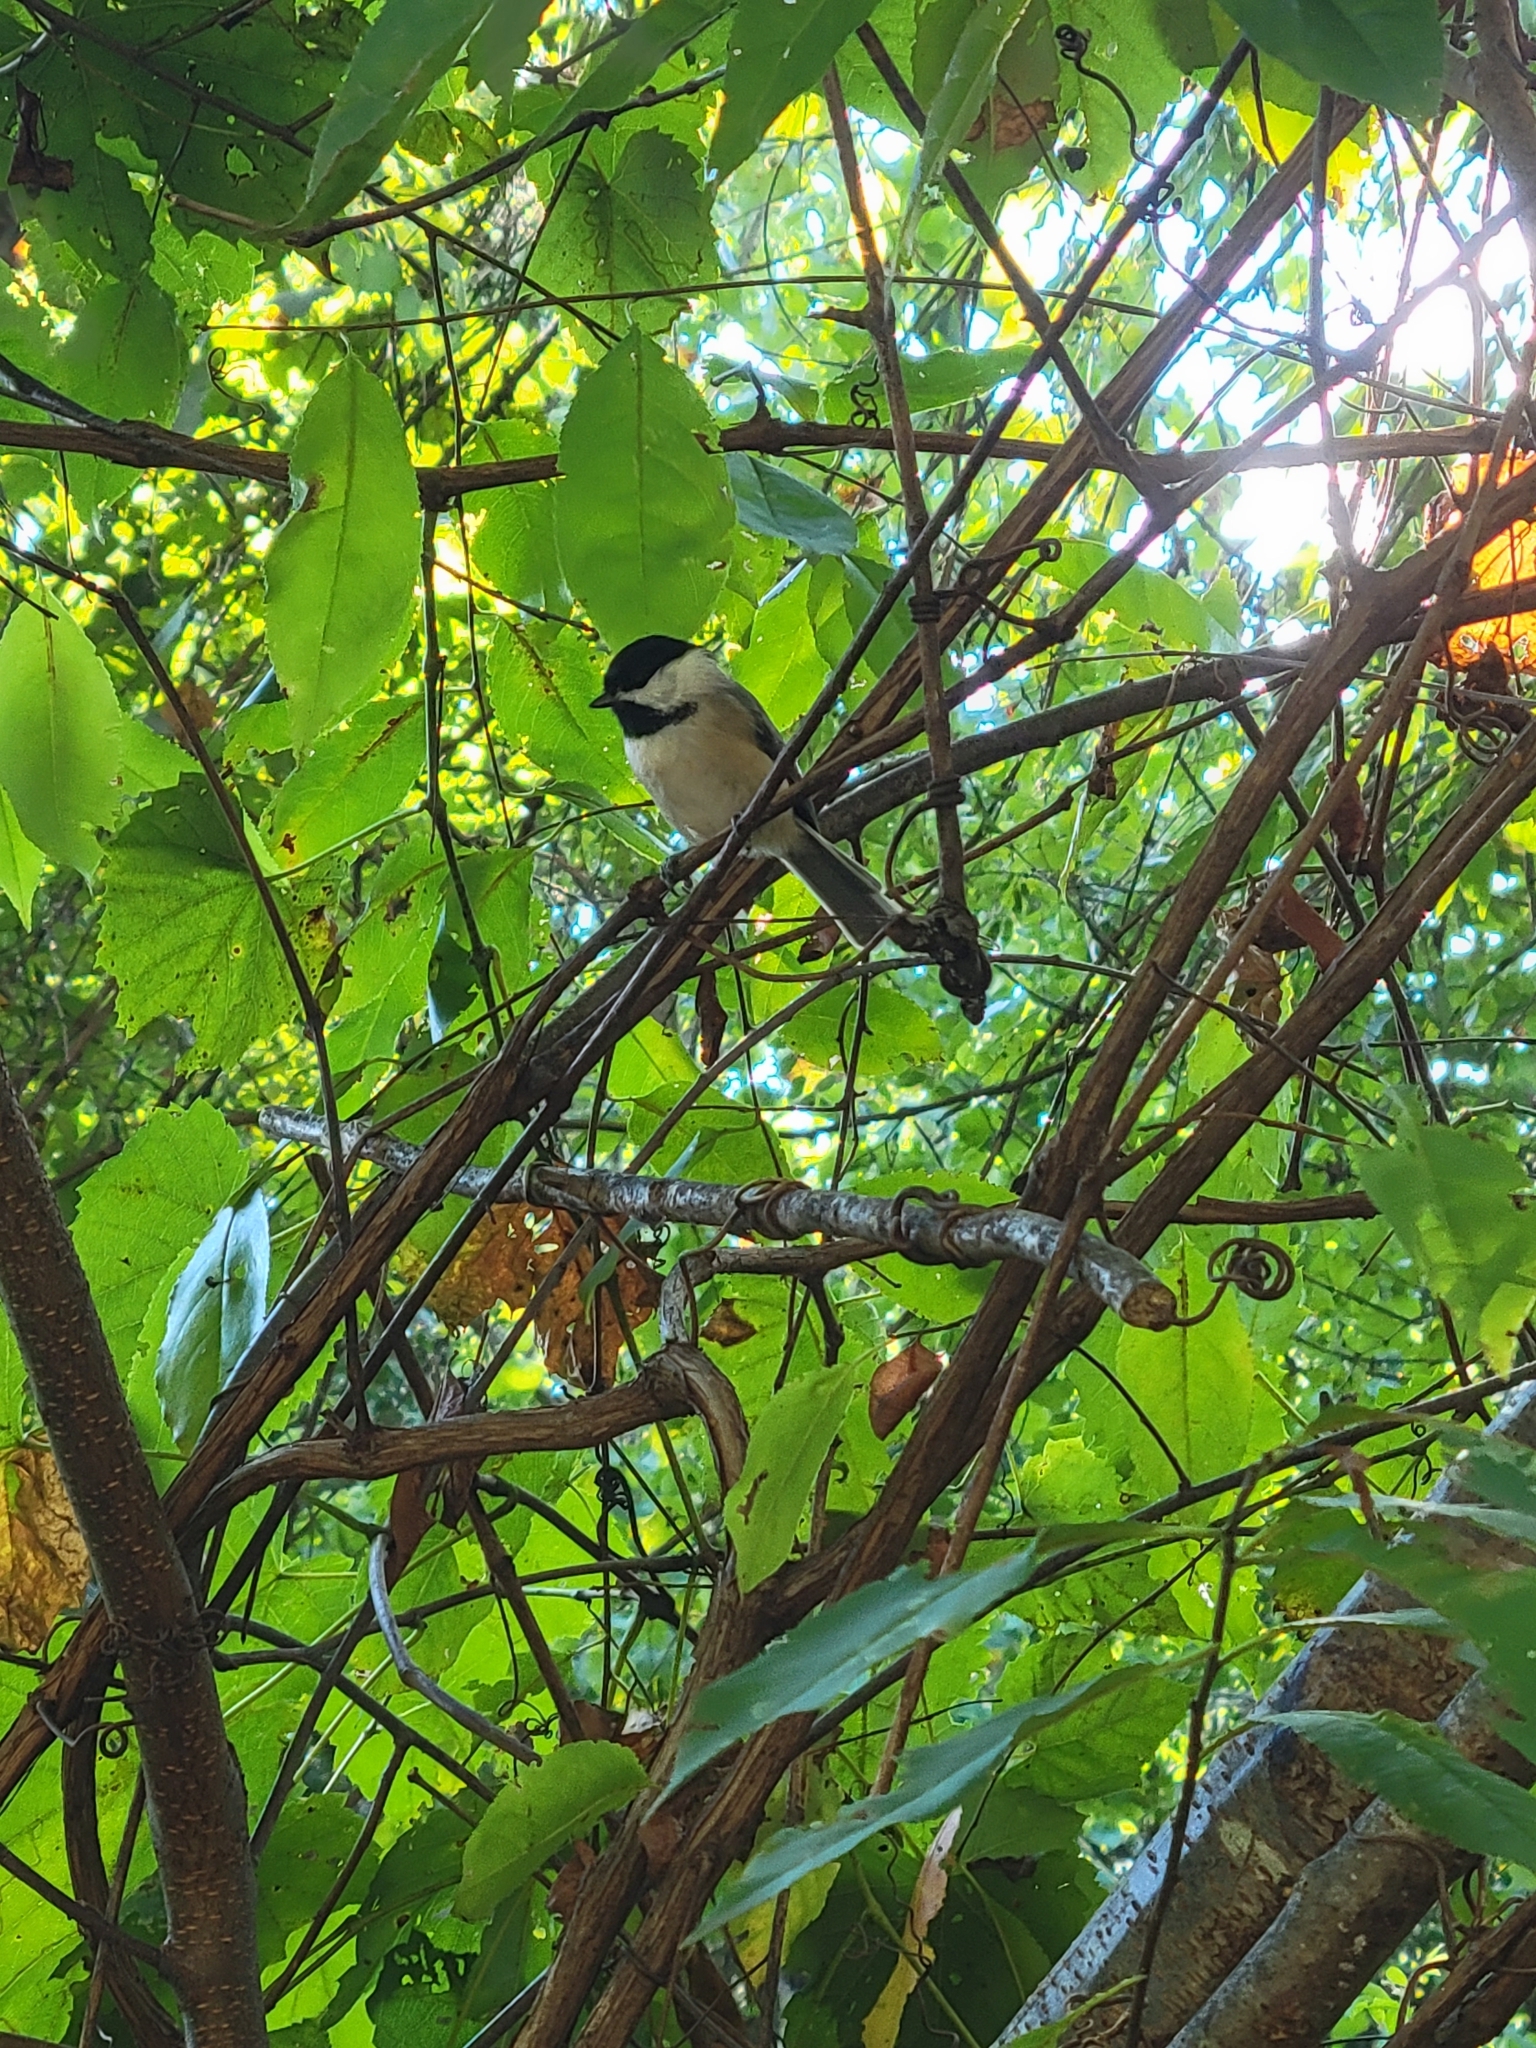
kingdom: Animalia
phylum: Chordata
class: Aves
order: Passeriformes
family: Paridae
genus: Poecile
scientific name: Poecile carolinensis
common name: Carolina chickadee
